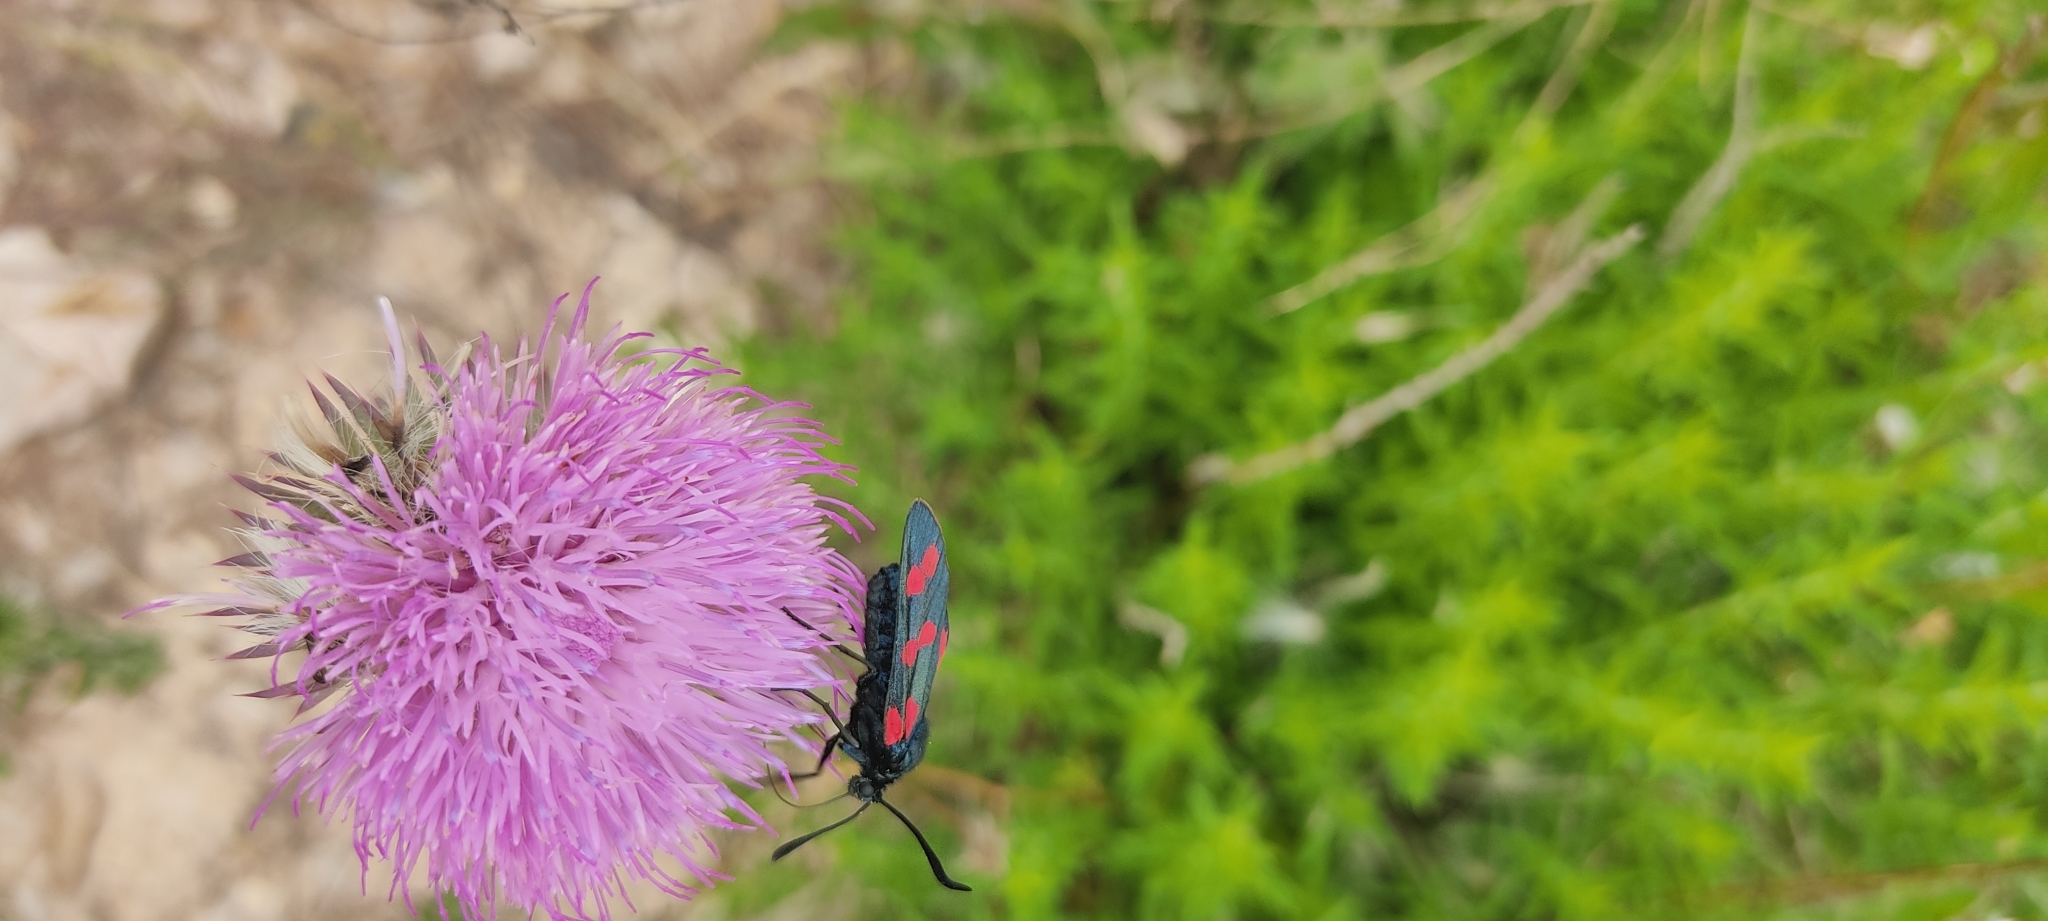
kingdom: Animalia
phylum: Arthropoda
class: Insecta
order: Lepidoptera
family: Zygaenidae
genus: Zygaena
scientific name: Zygaena filipendulae
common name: Six-spot burnet
